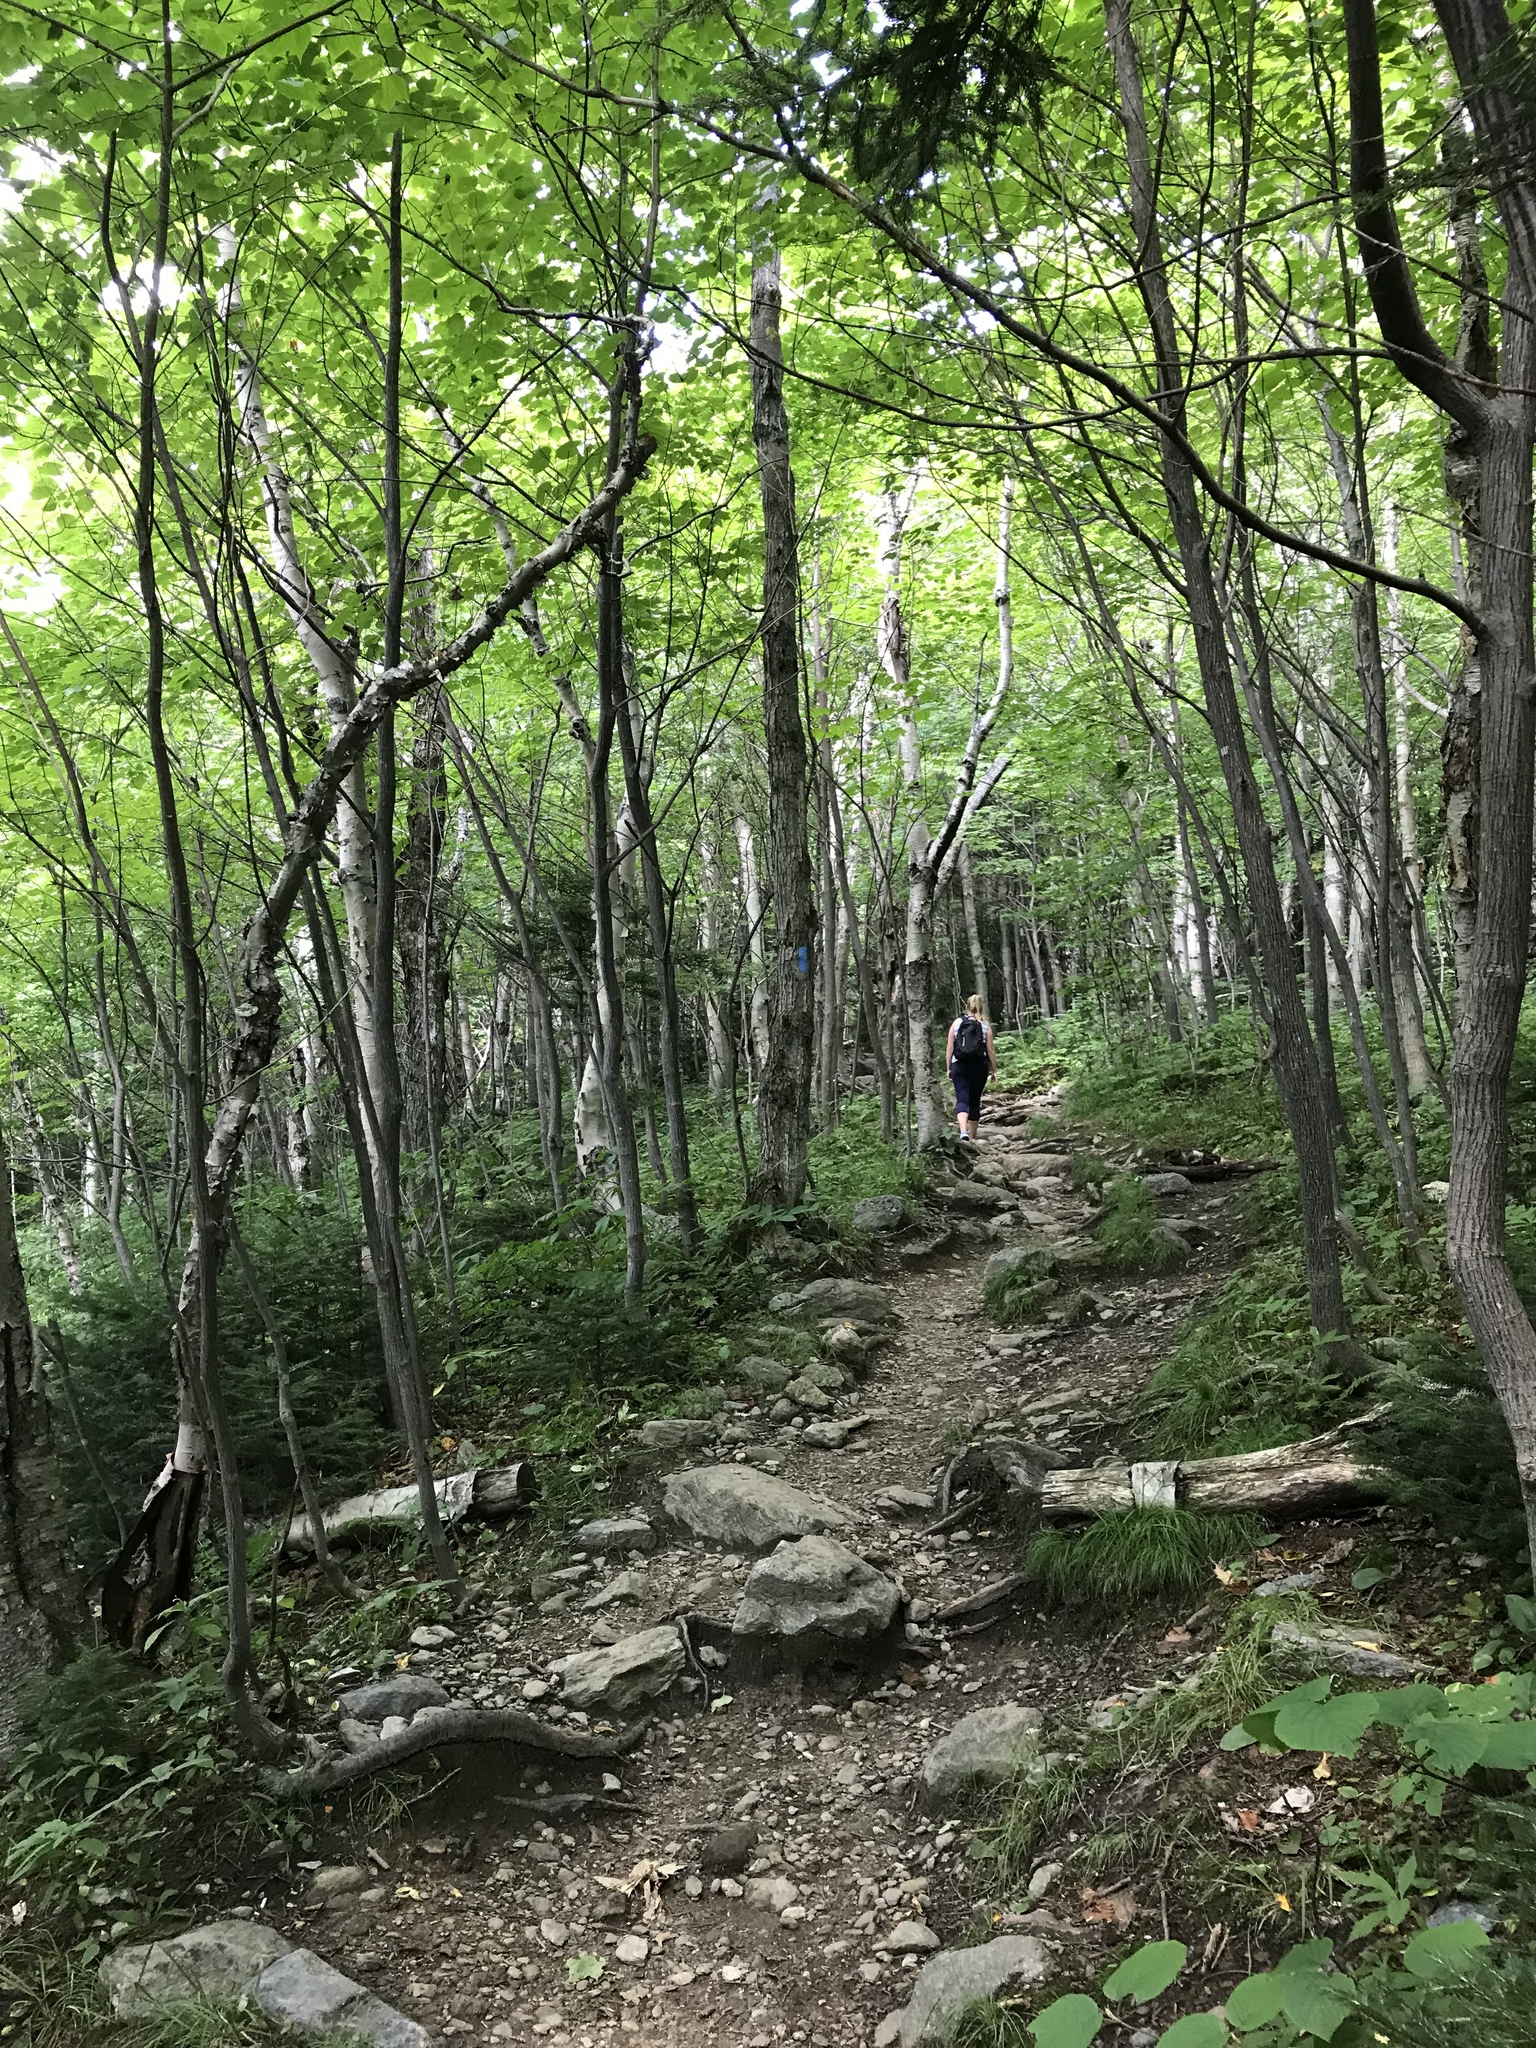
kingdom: Plantae
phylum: Tracheophyta
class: Magnoliopsida
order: Fagales
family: Betulaceae
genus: Betula
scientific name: Betula cordifolia
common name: Mountain white birch
